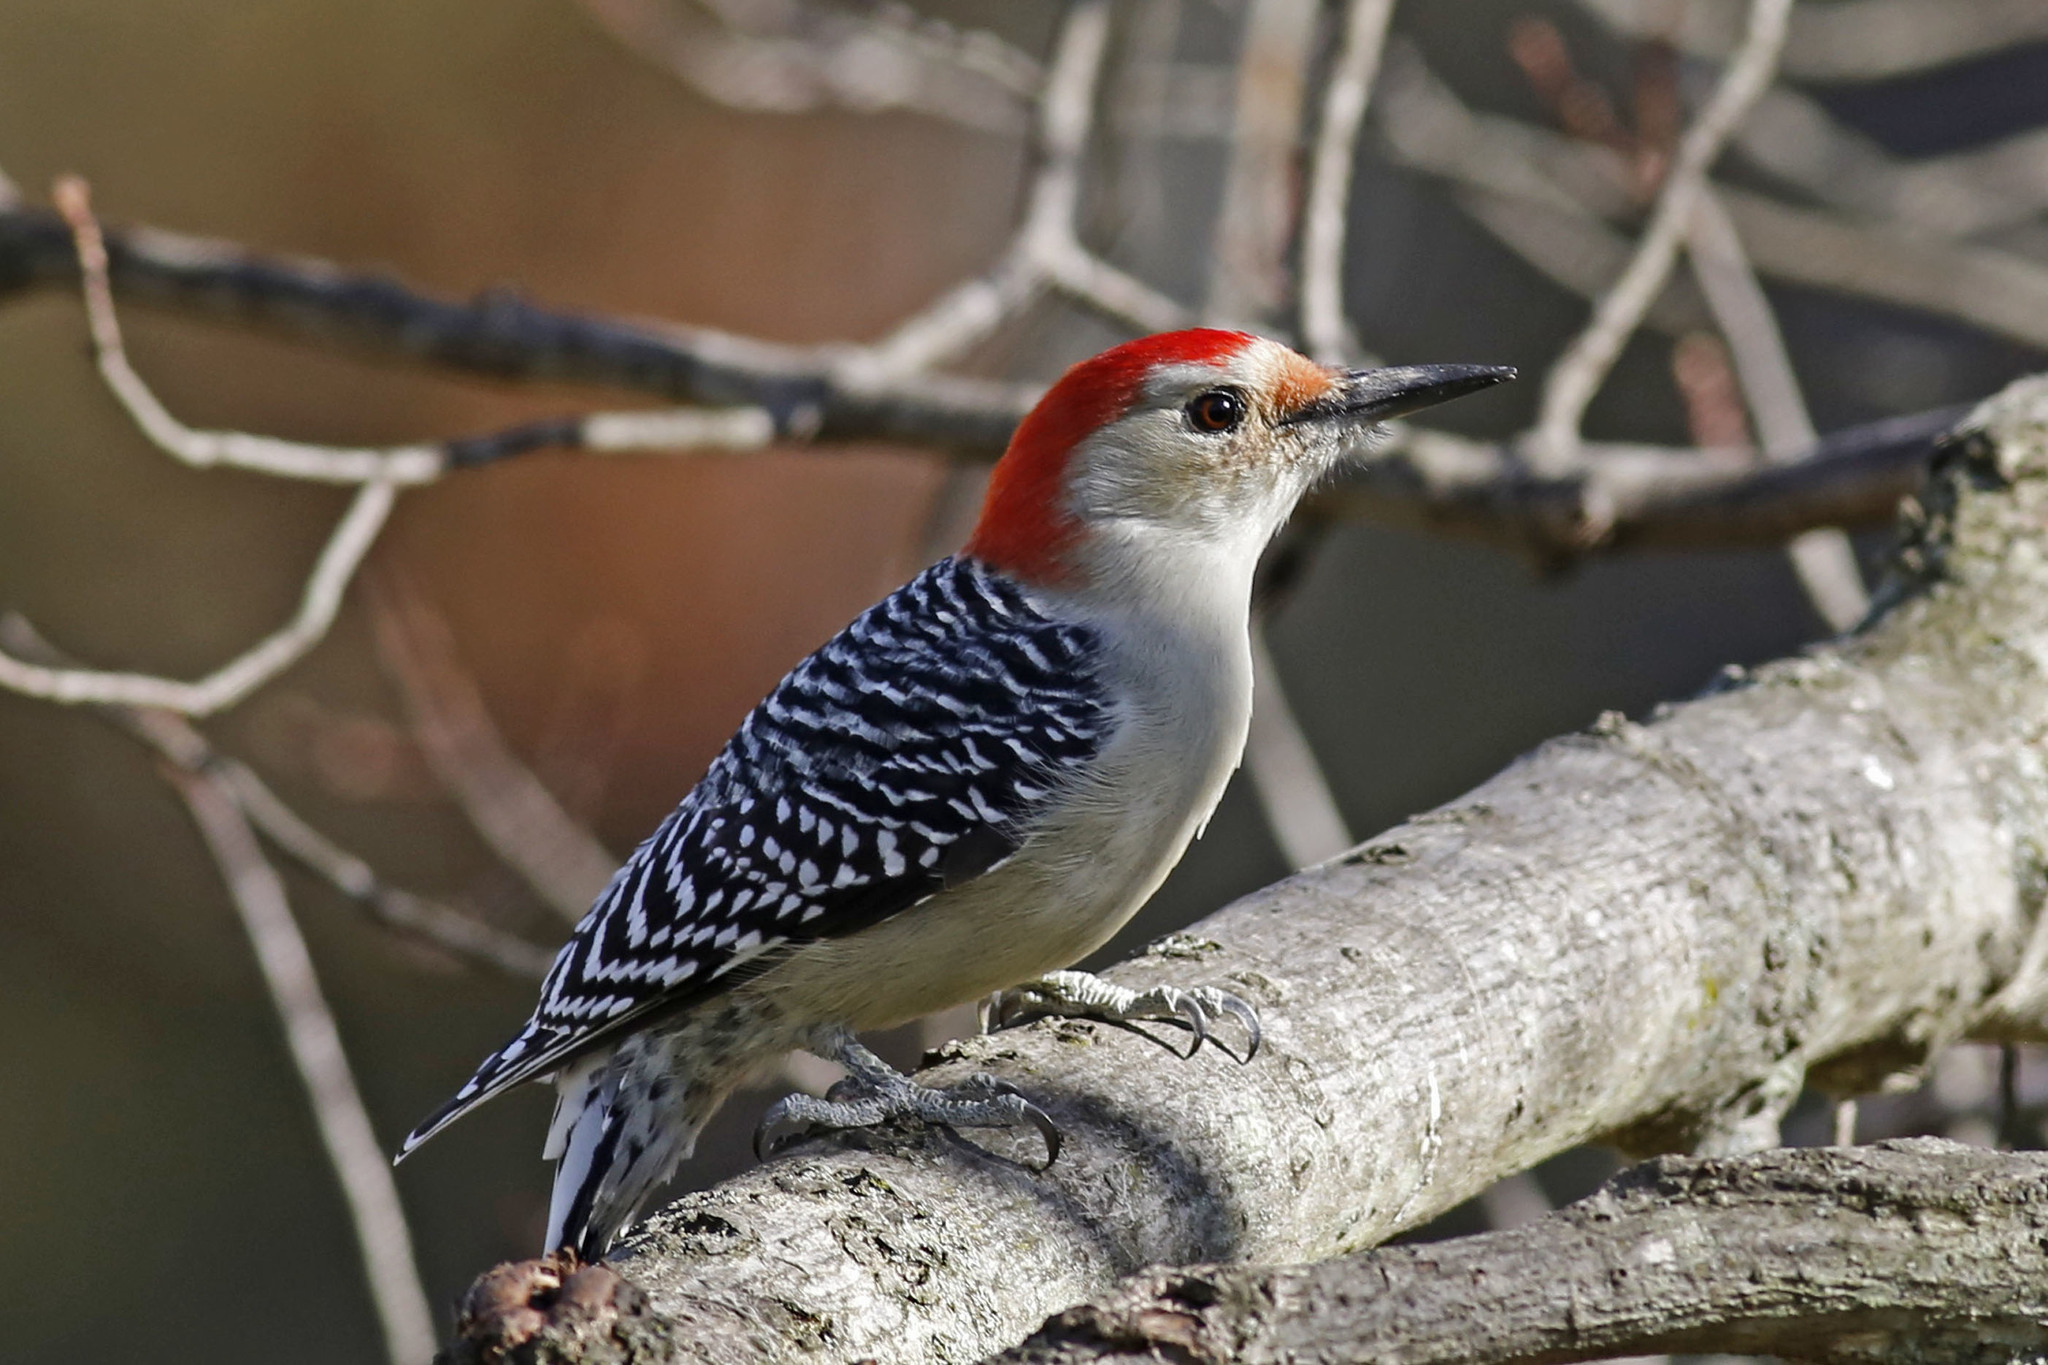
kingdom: Animalia
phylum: Chordata
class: Aves
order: Piciformes
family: Picidae
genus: Melanerpes
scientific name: Melanerpes carolinus
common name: Red-bellied woodpecker
